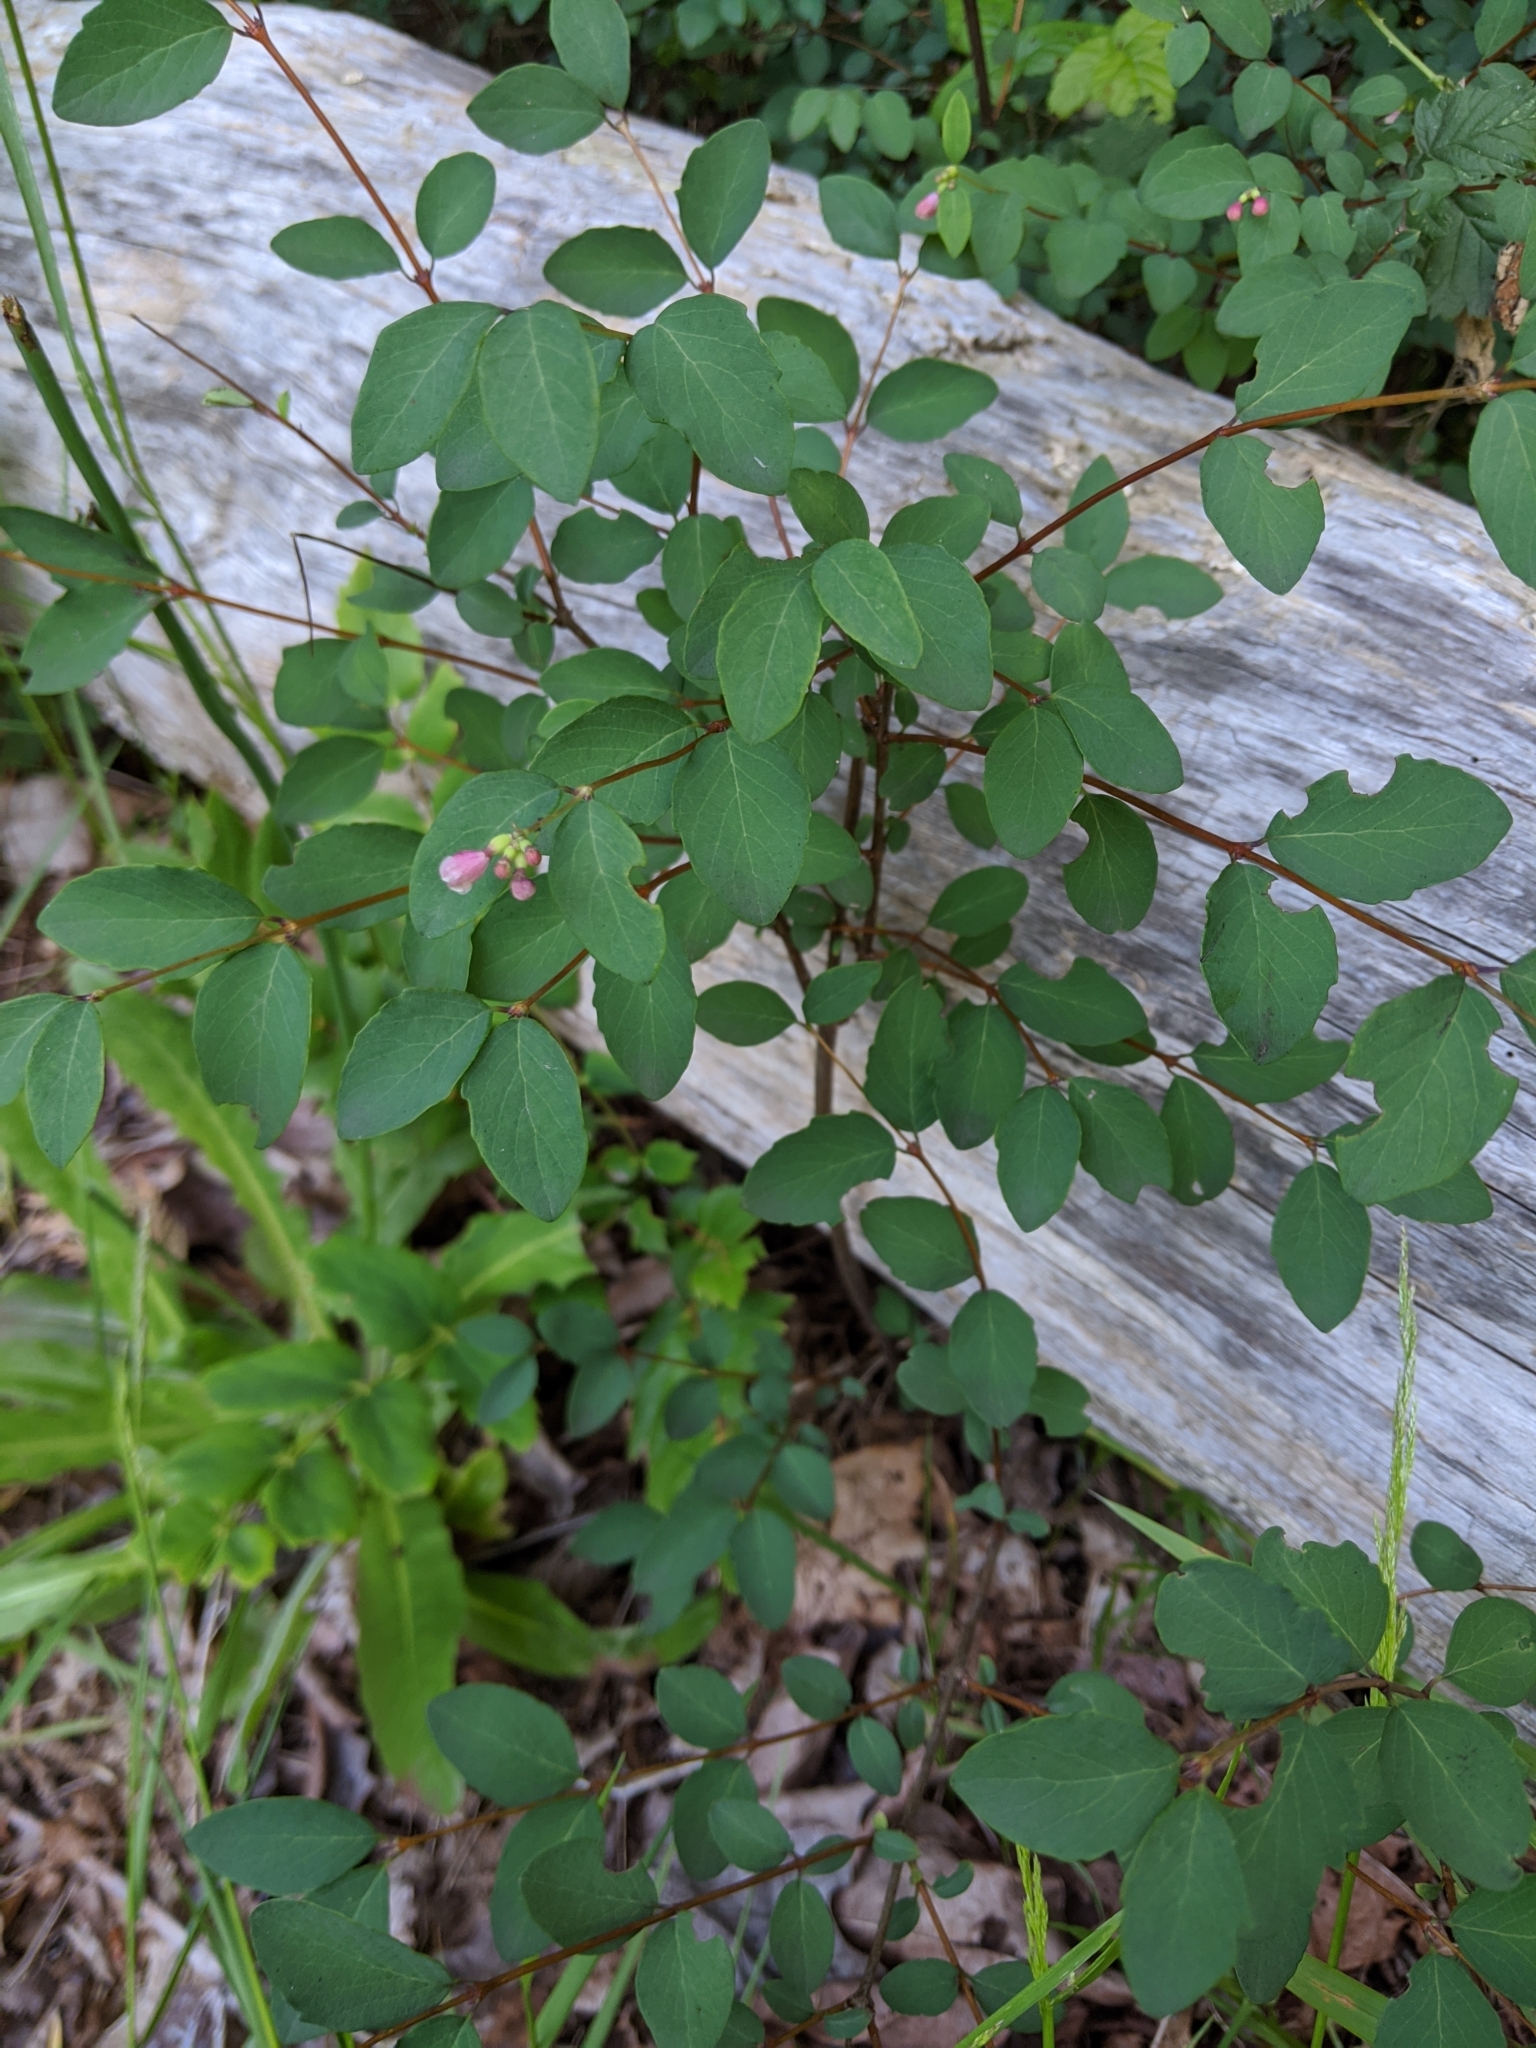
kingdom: Plantae
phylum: Tracheophyta
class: Magnoliopsida
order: Dipsacales
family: Caprifoliaceae
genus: Symphoricarpos
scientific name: Symphoricarpos albus
